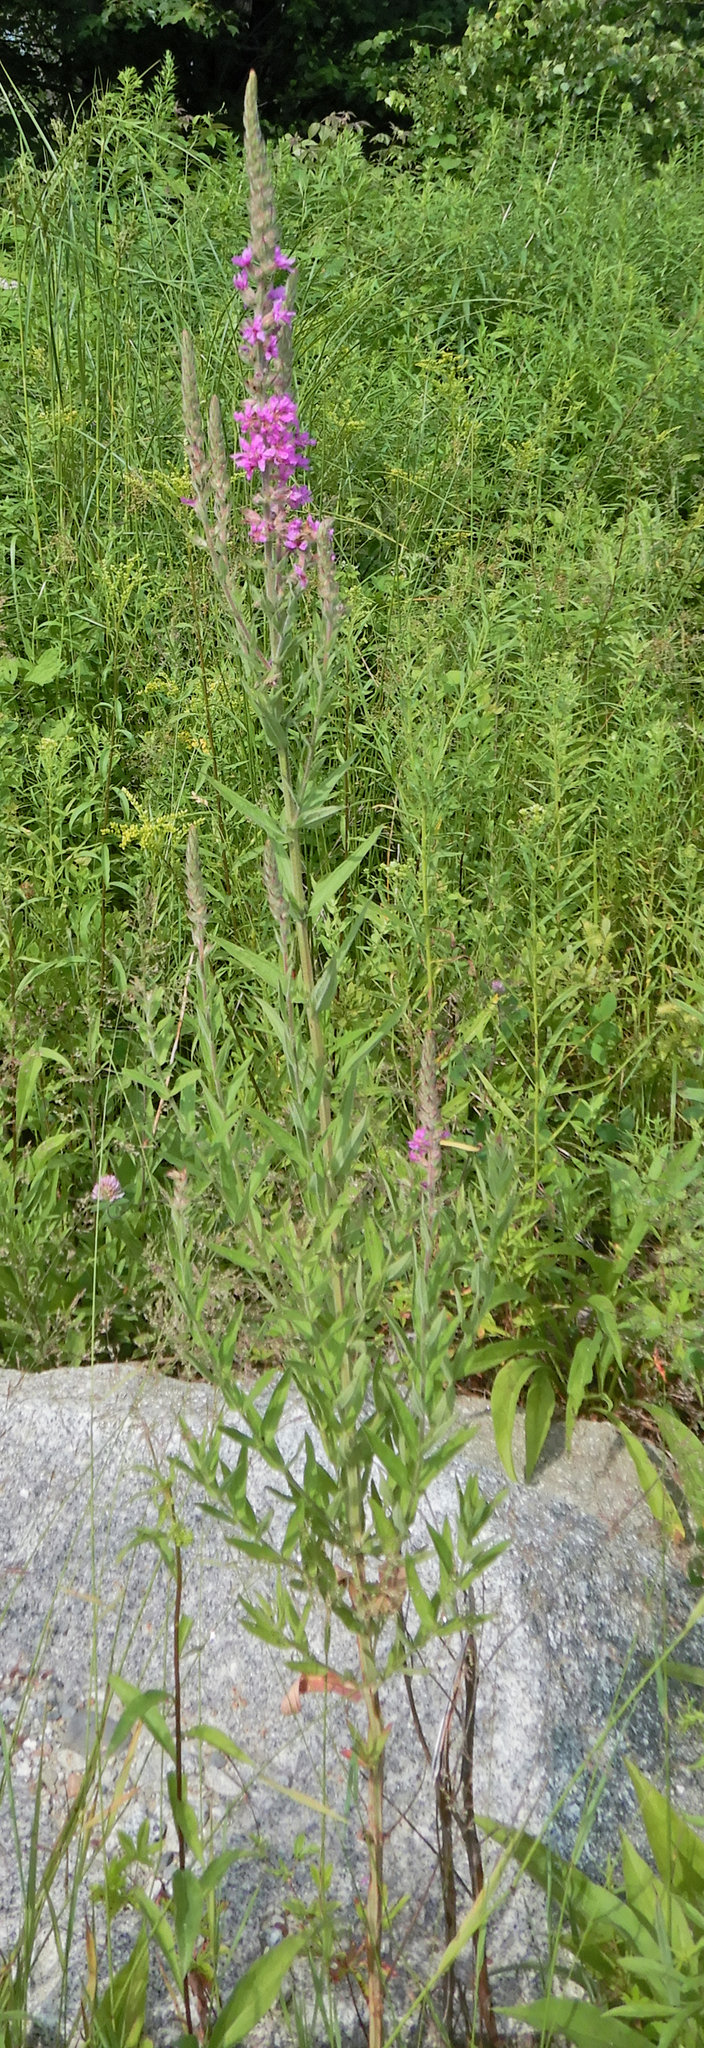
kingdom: Plantae
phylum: Tracheophyta
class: Magnoliopsida
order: Myrtales
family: Lythraceae
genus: Lythrum
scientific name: Lythrum salicaria
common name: Purple loosestrife
